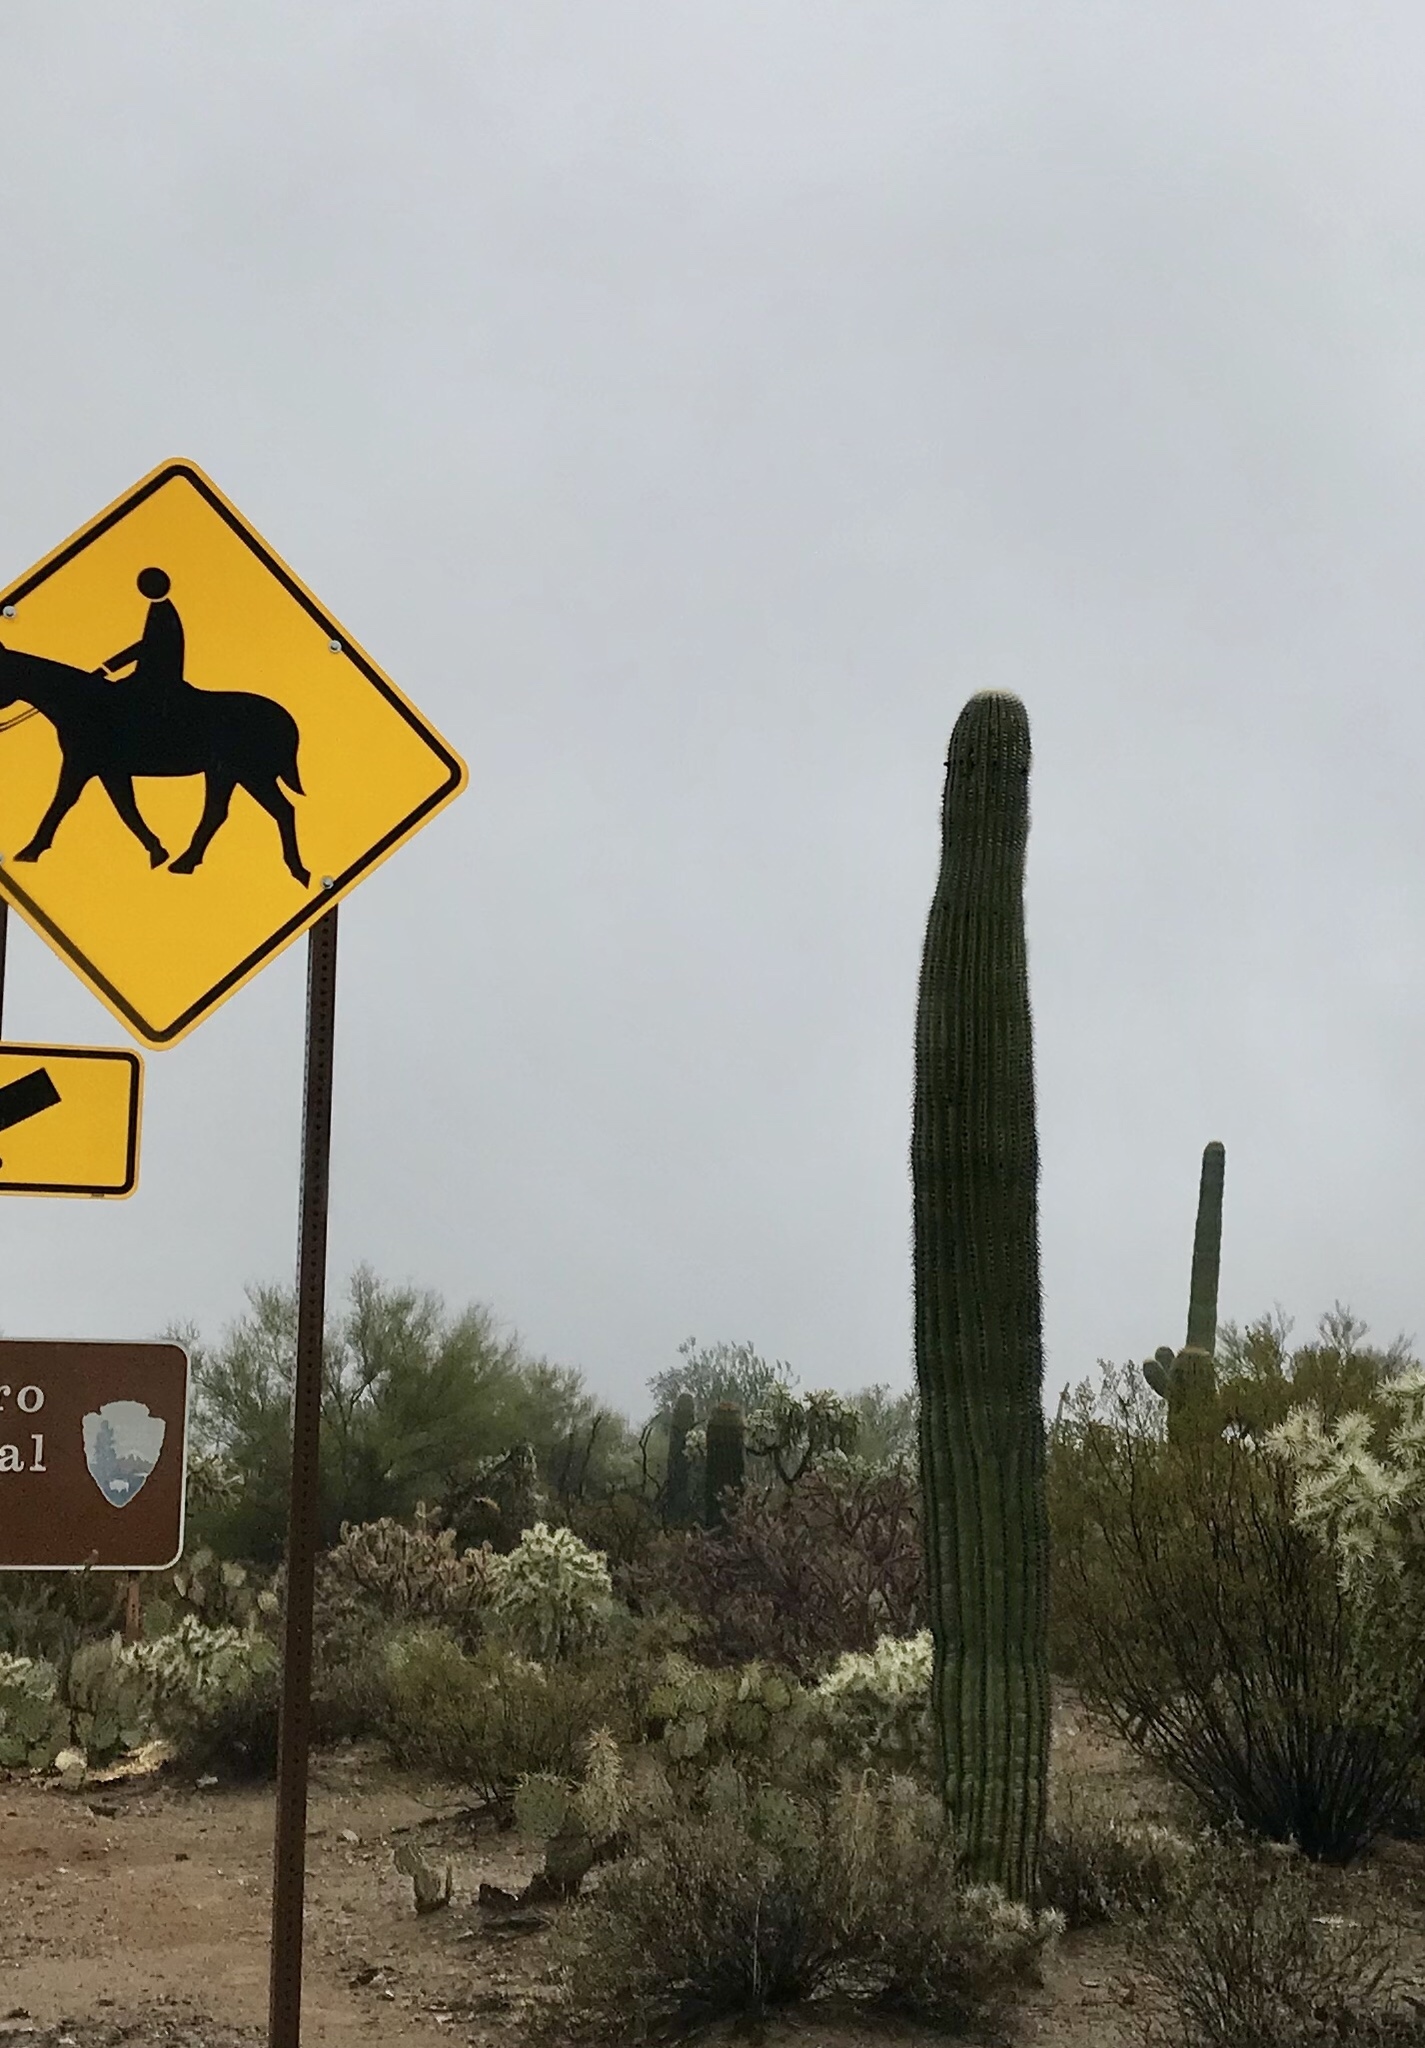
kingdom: Plantae
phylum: Tracheophyta
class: Magnoliopsida
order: Caryophyllales
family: Cactaceae
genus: Carnegiea
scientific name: Carnegiea gigantea
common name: Saguaro
